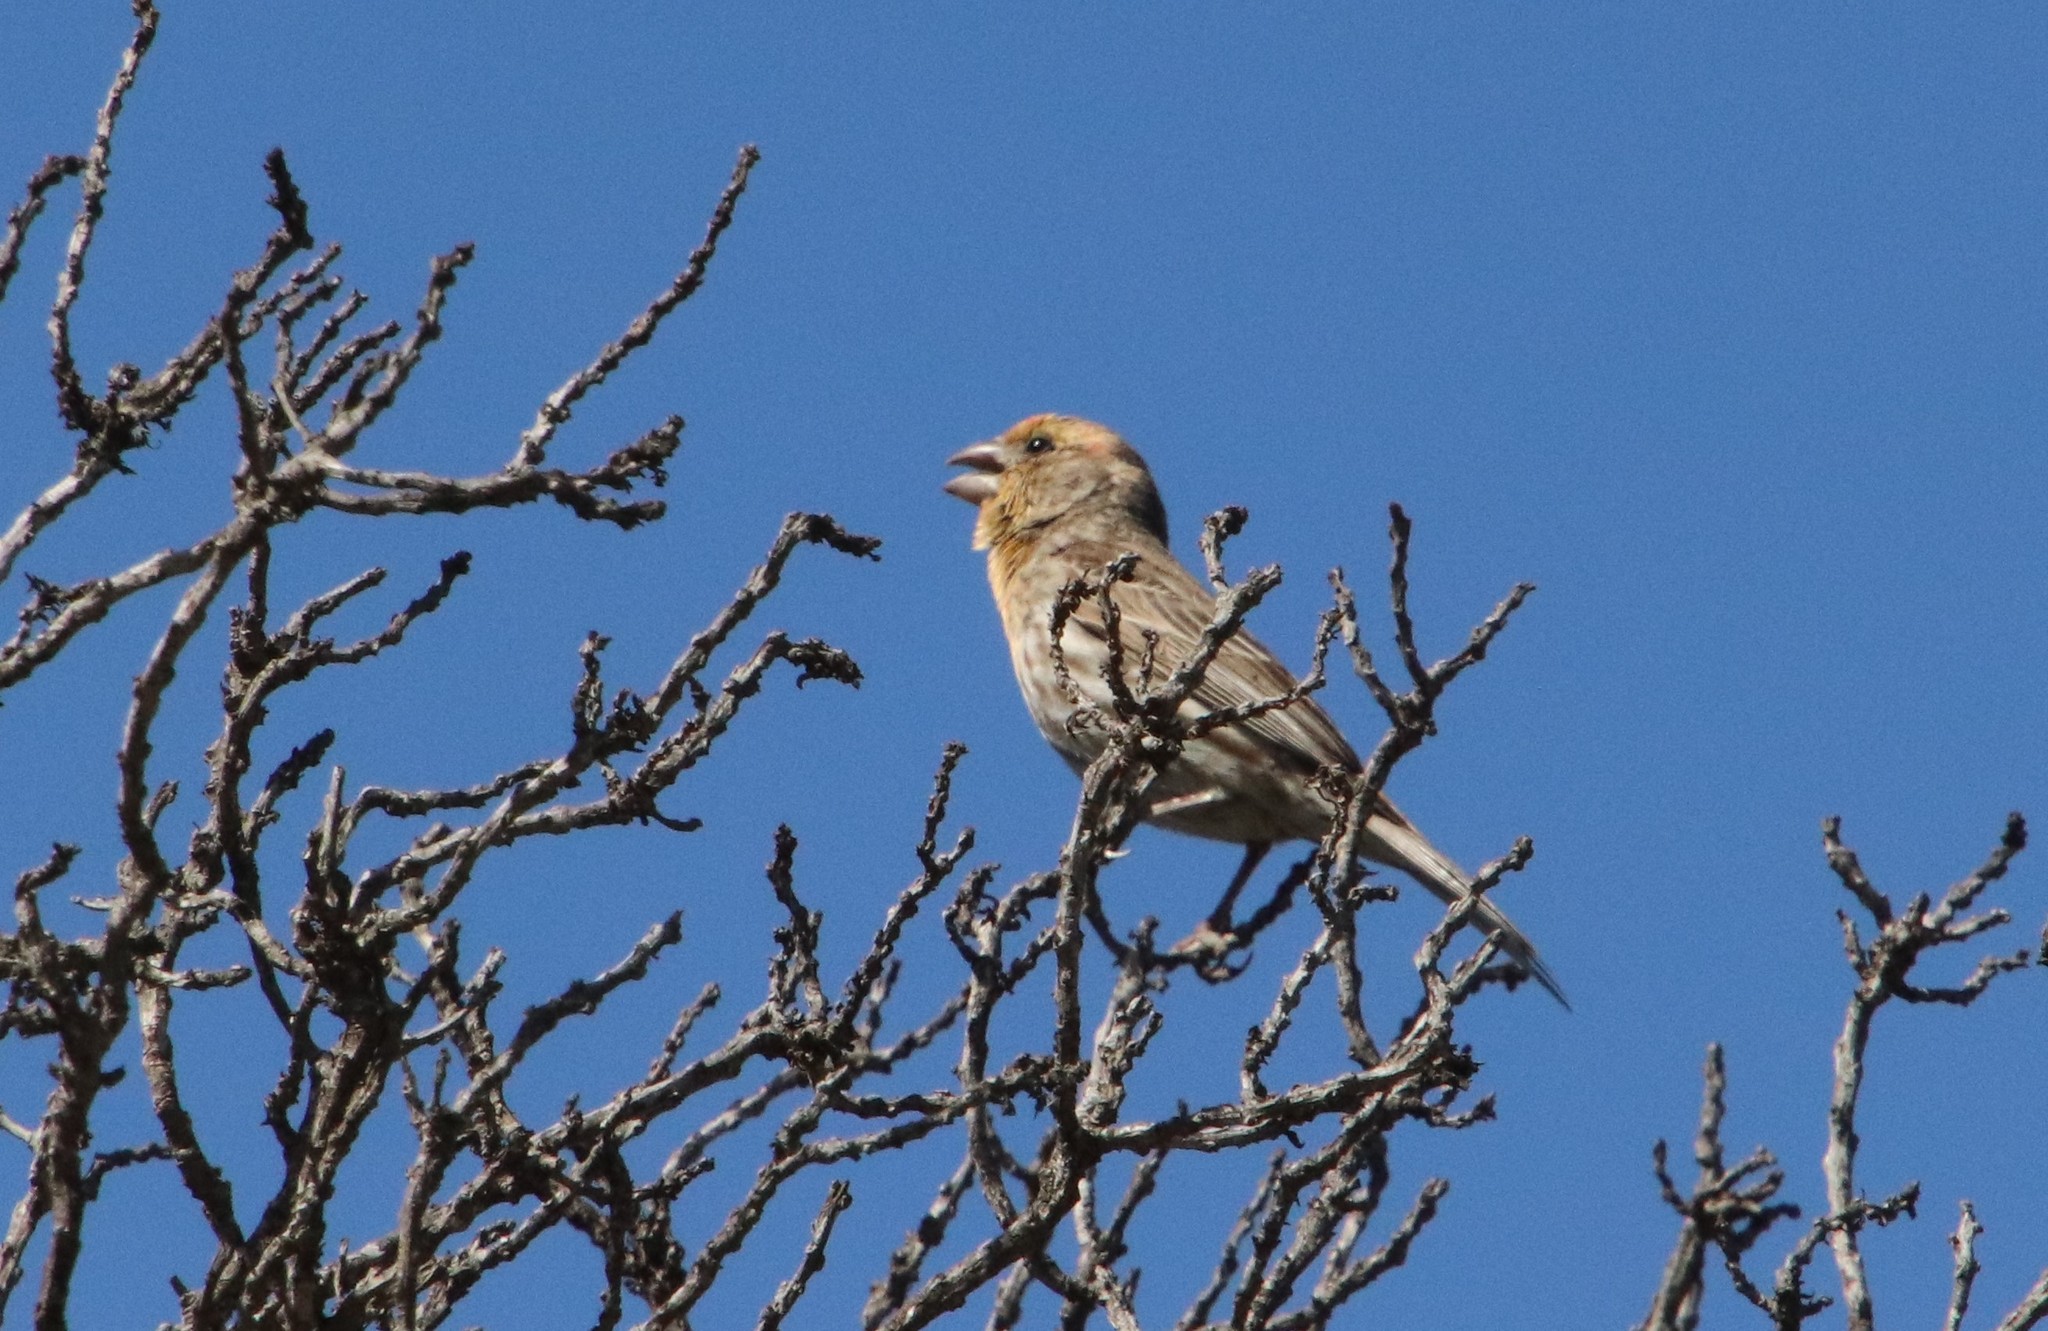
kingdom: Animalia
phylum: Chordata
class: Aves
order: Passeriformes
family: Fringillidae
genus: Haemorhous
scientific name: Haemorhous mexicanus
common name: House finch
